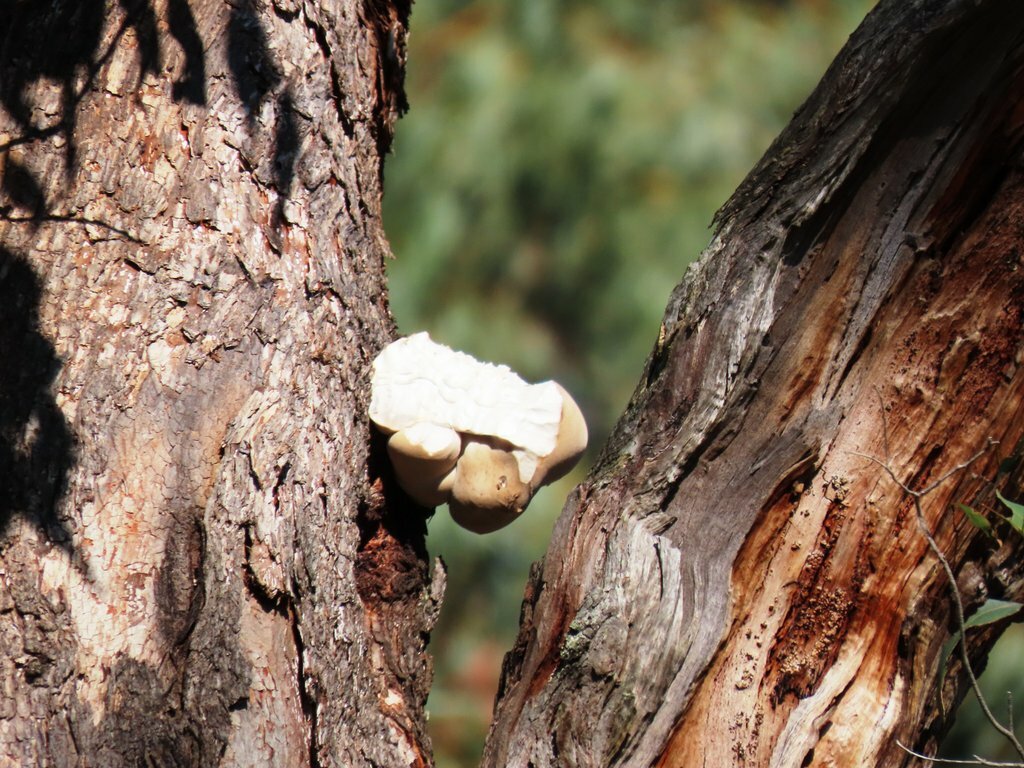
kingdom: Fungi
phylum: Basidiomycota
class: Agaricomycetes
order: Polyporales
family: Laetiporaceae
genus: Laetiporus
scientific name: Laetiporus portentosus
